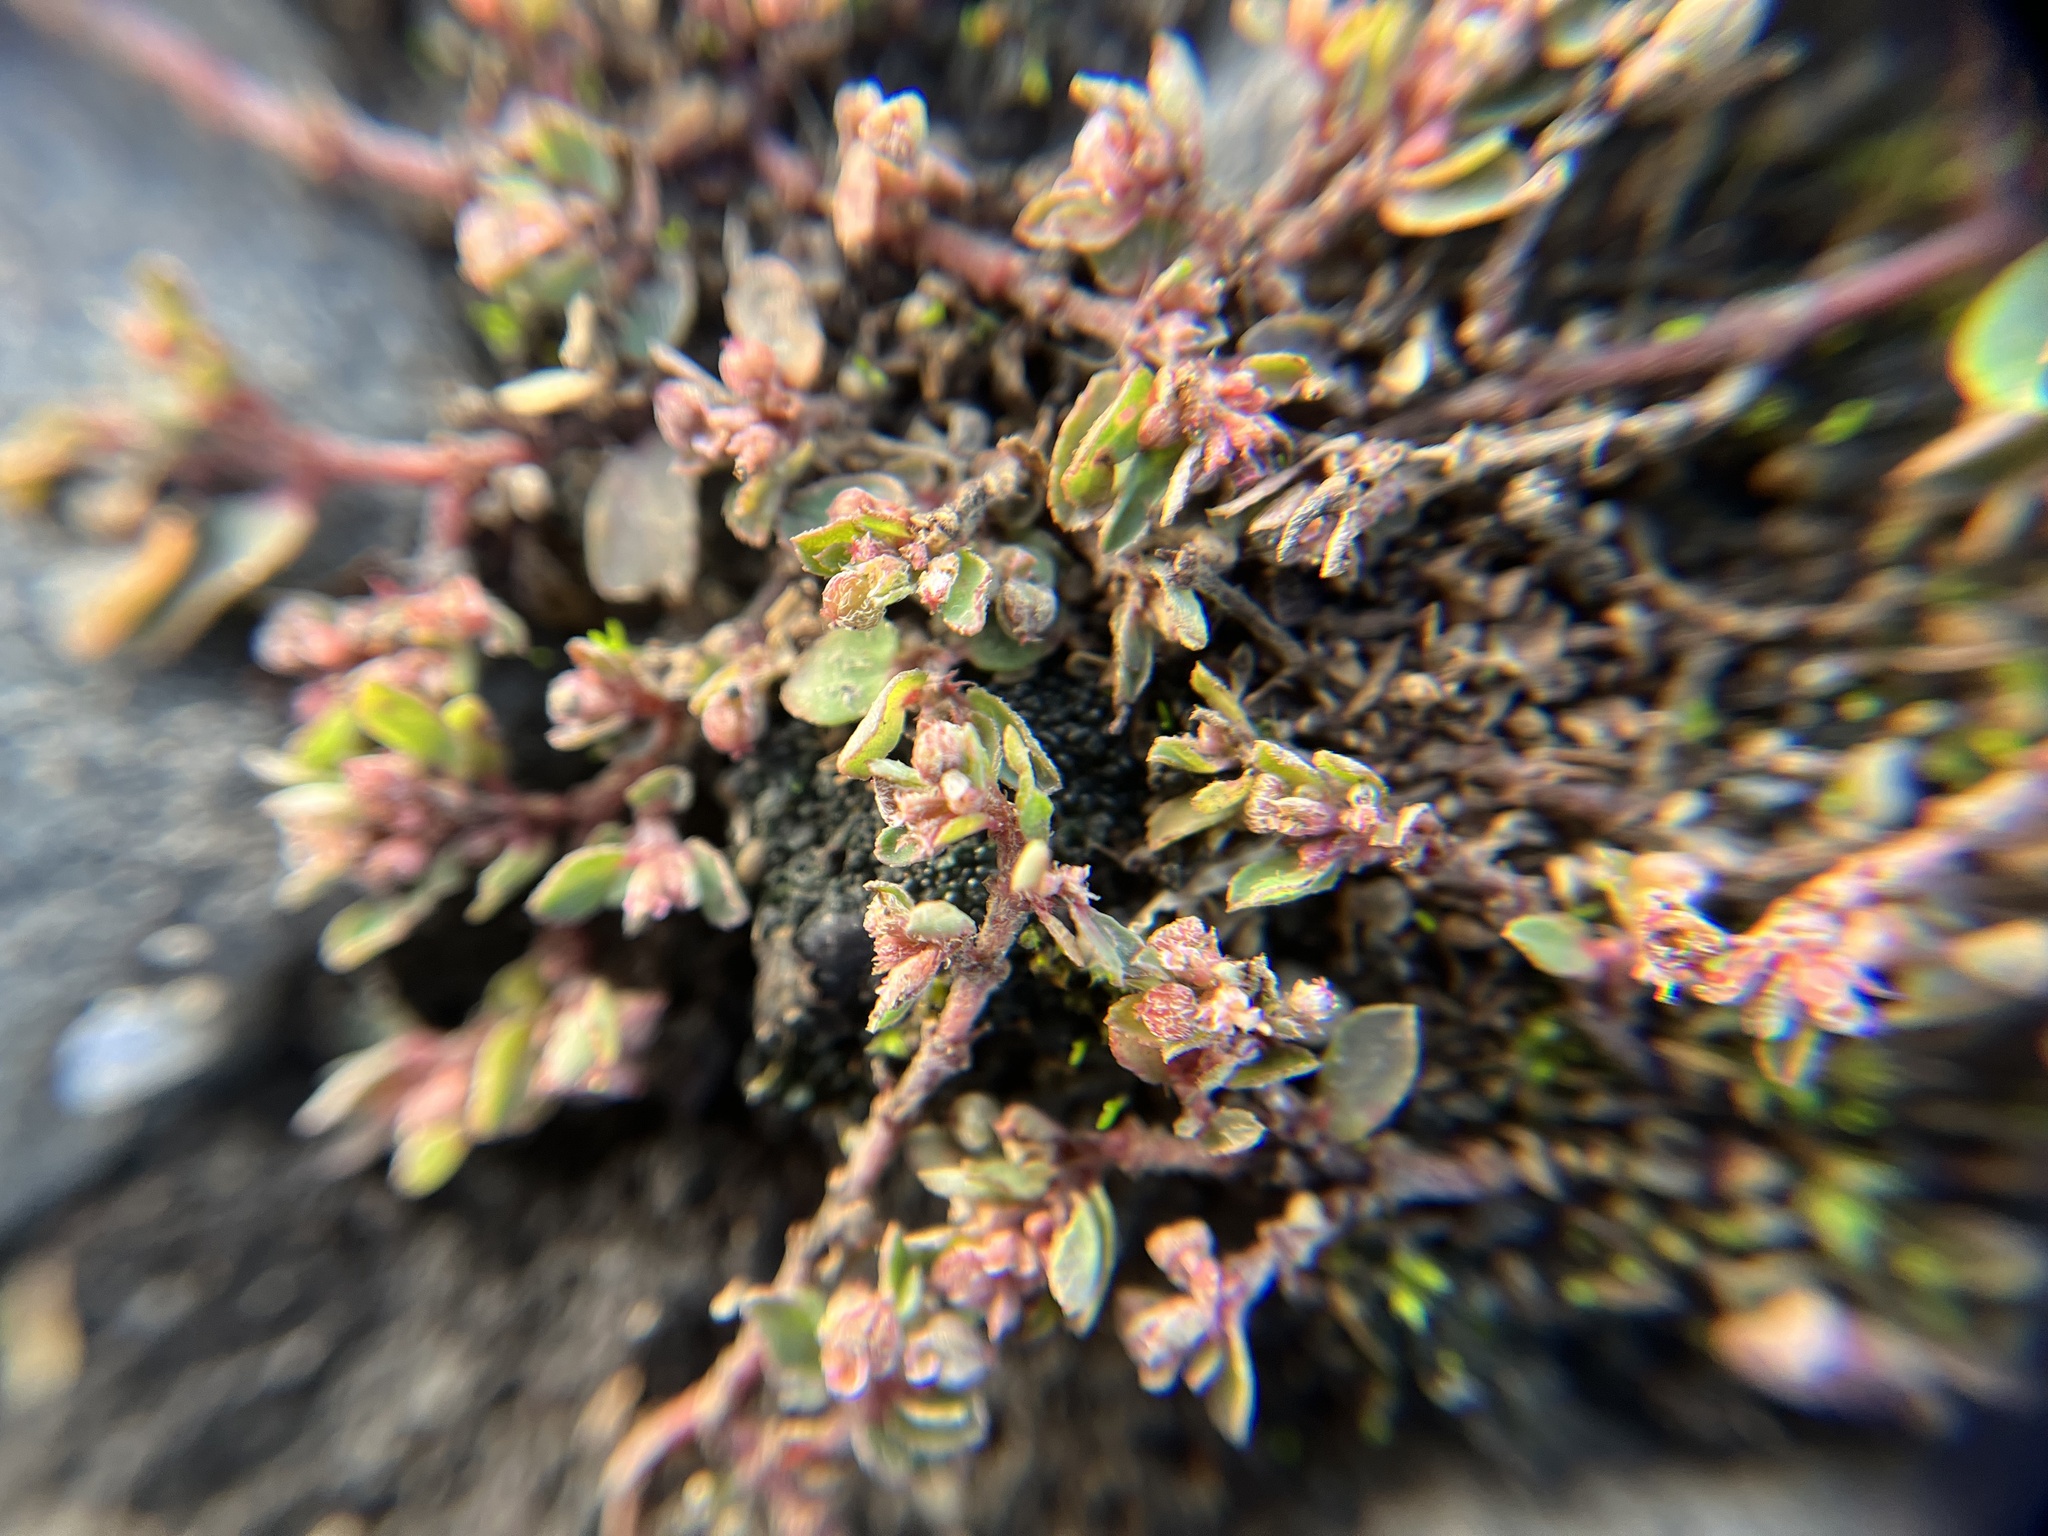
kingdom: Plantae
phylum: Tracheophyta
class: Magnoliopsida
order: Malpighiales
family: Euphorbiaceae
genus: Euphorbia
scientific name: Euphorbia maculata
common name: Spotted spurge
